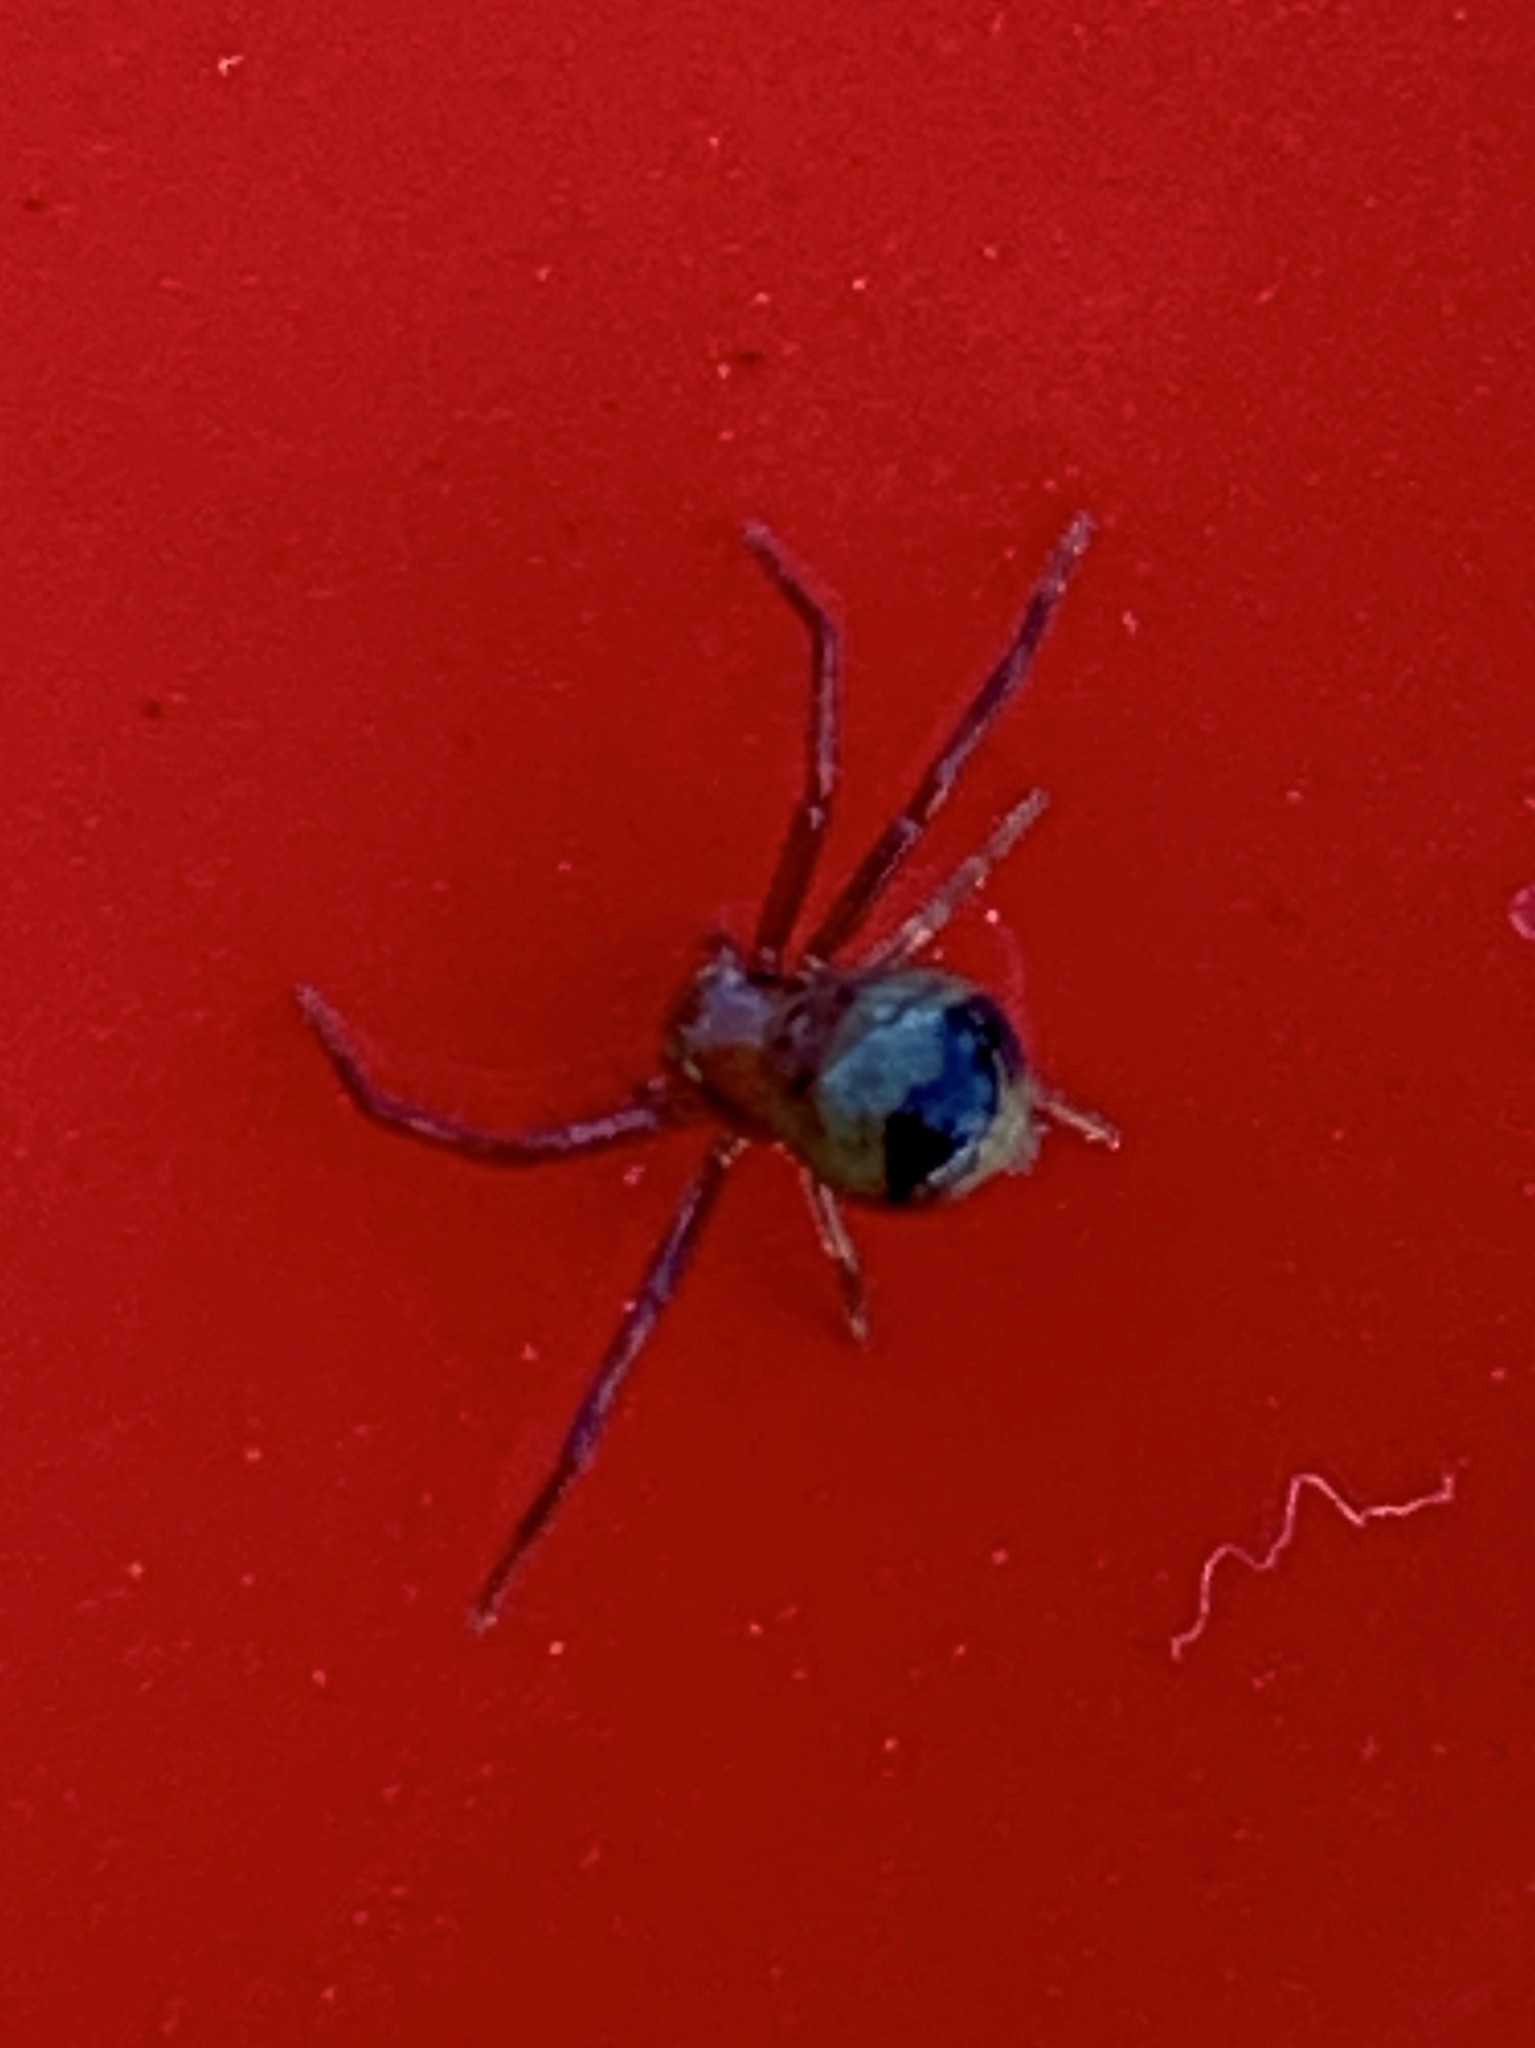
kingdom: Animalia
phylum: Arthropoda
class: Arachnida
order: Araneae
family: Thomisidae
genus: Synema
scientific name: Synema parvulum
